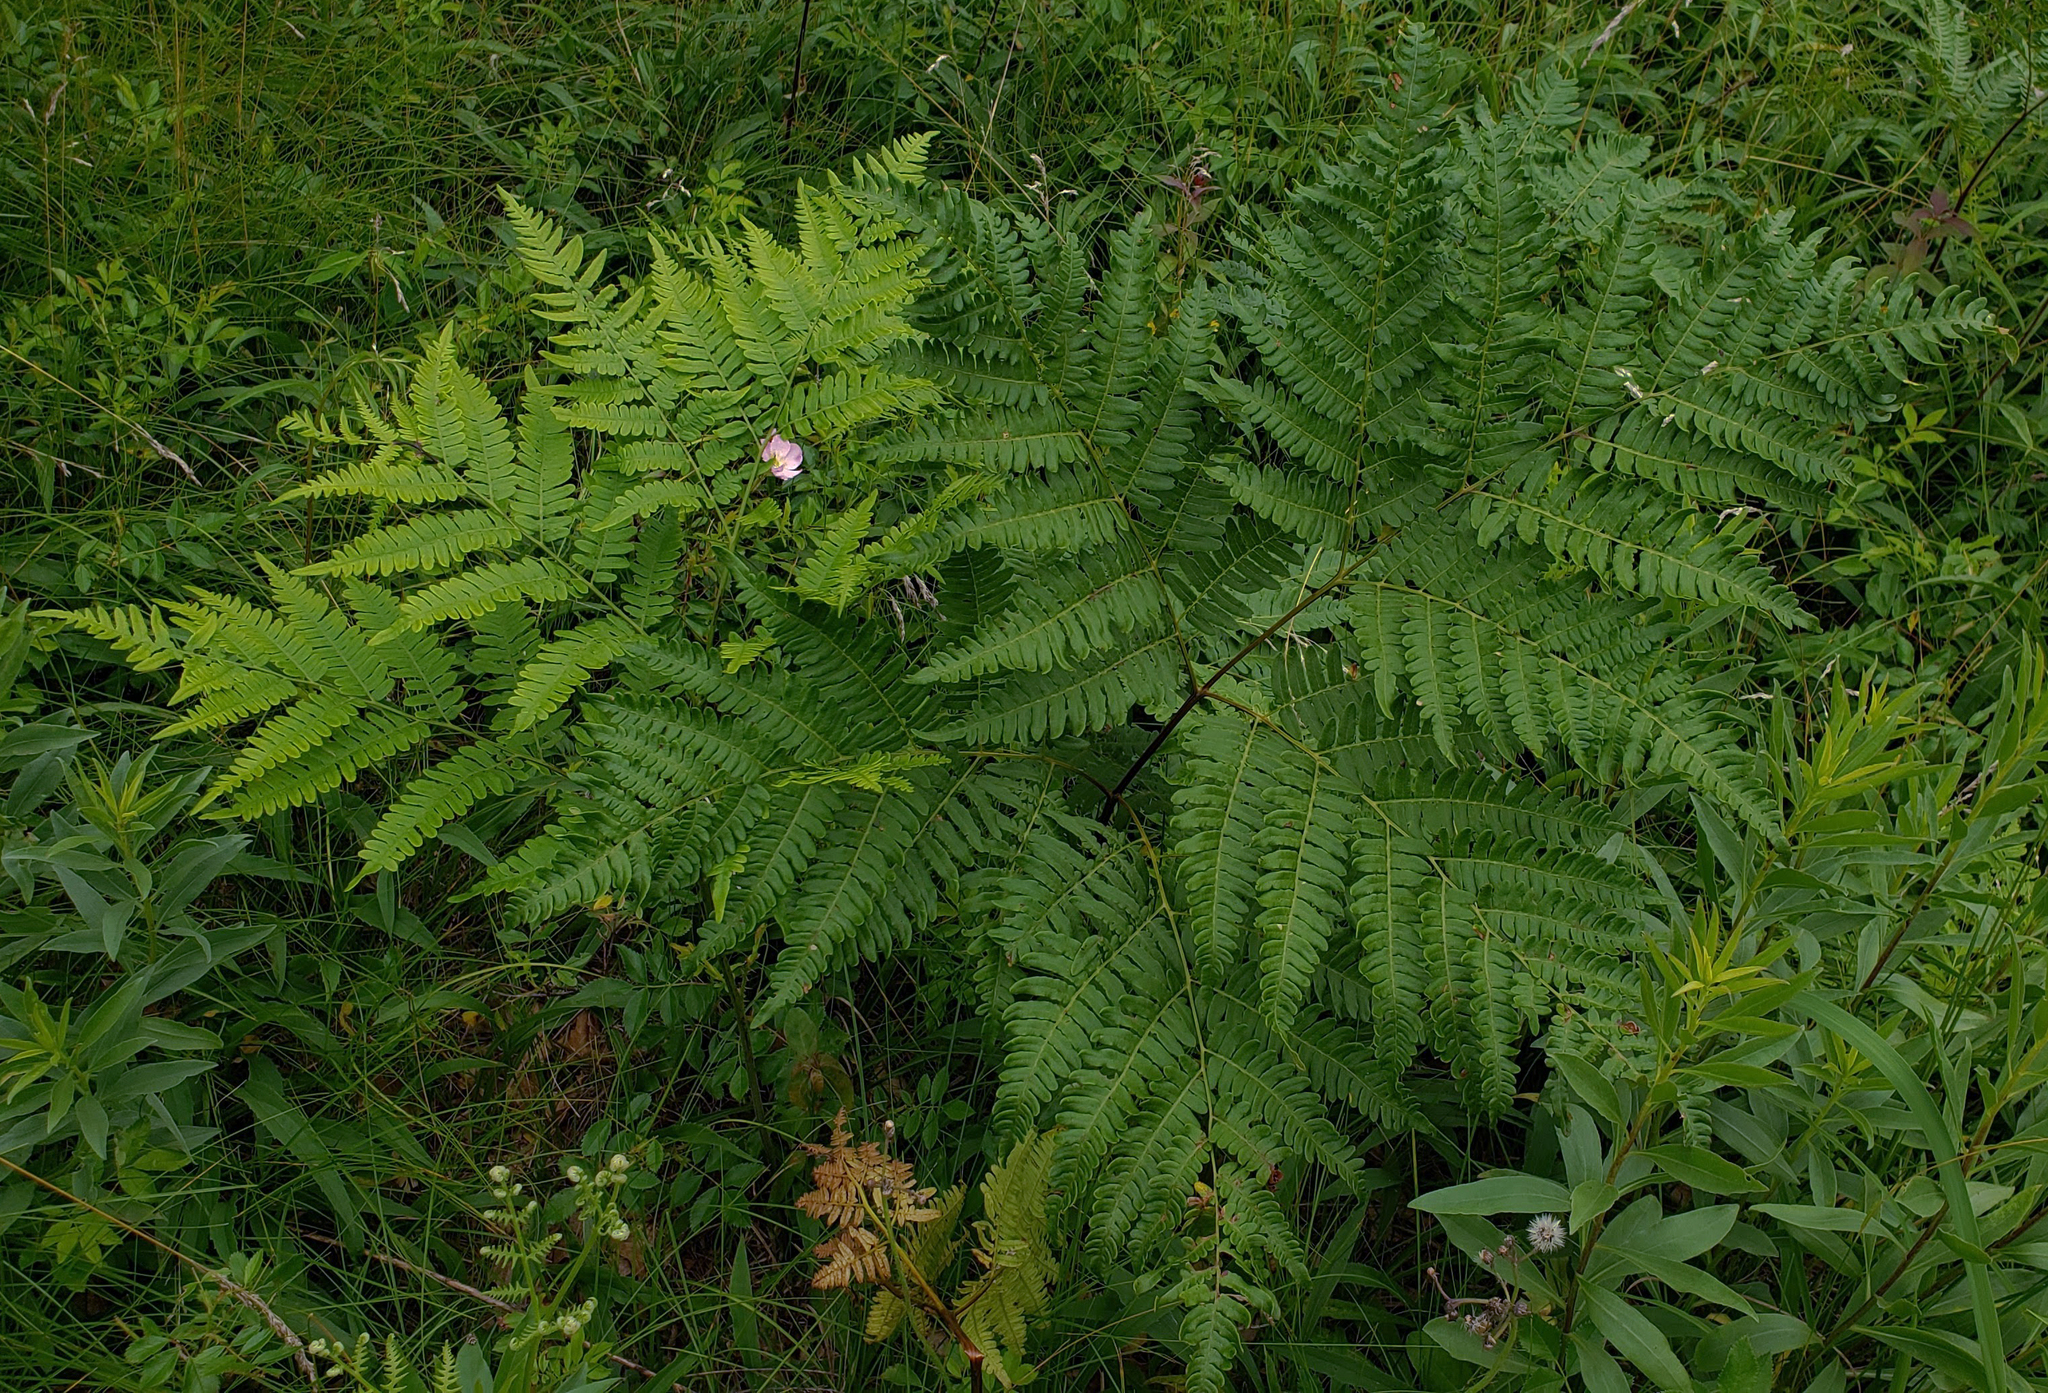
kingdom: Plantae
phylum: Tracheophyta
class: Polypodiopsida
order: Polypodiales
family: Dennstaedtiaceae
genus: Pteridium
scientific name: Pteridium aquilinum
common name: Bracken
